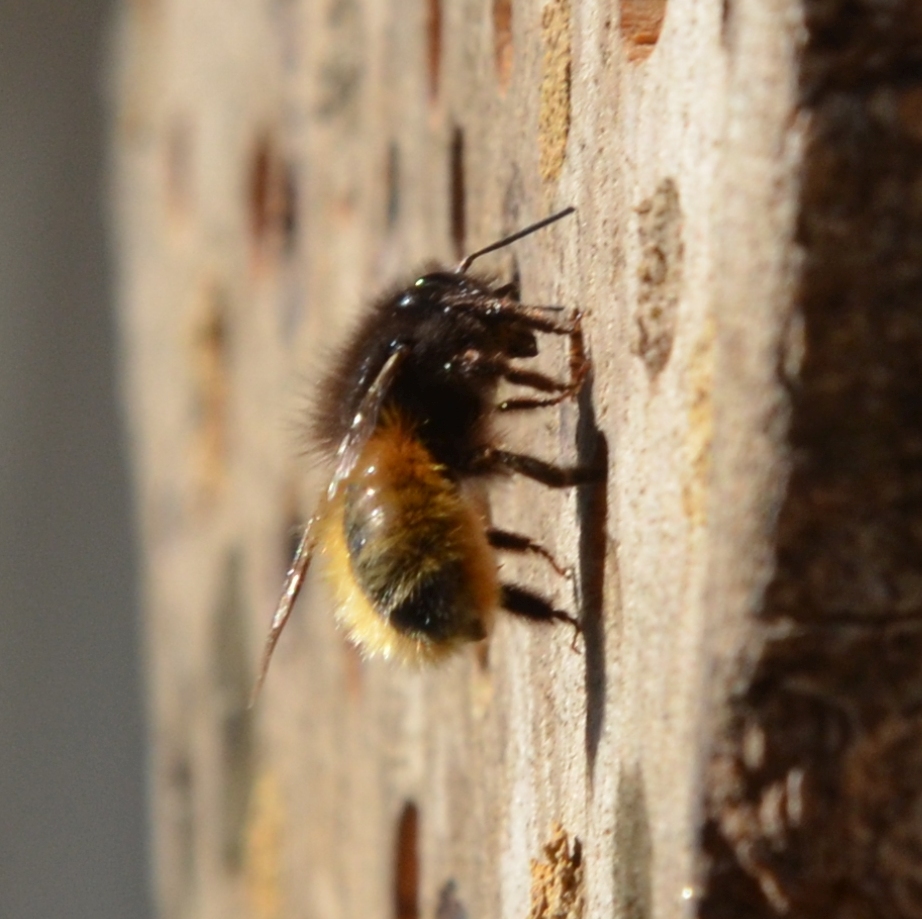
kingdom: Animalia
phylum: Arthropoda
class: Insecta
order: Hymenoptera
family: Megachilidae
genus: Osmia
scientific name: Osmia cornuta
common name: Mason bee
